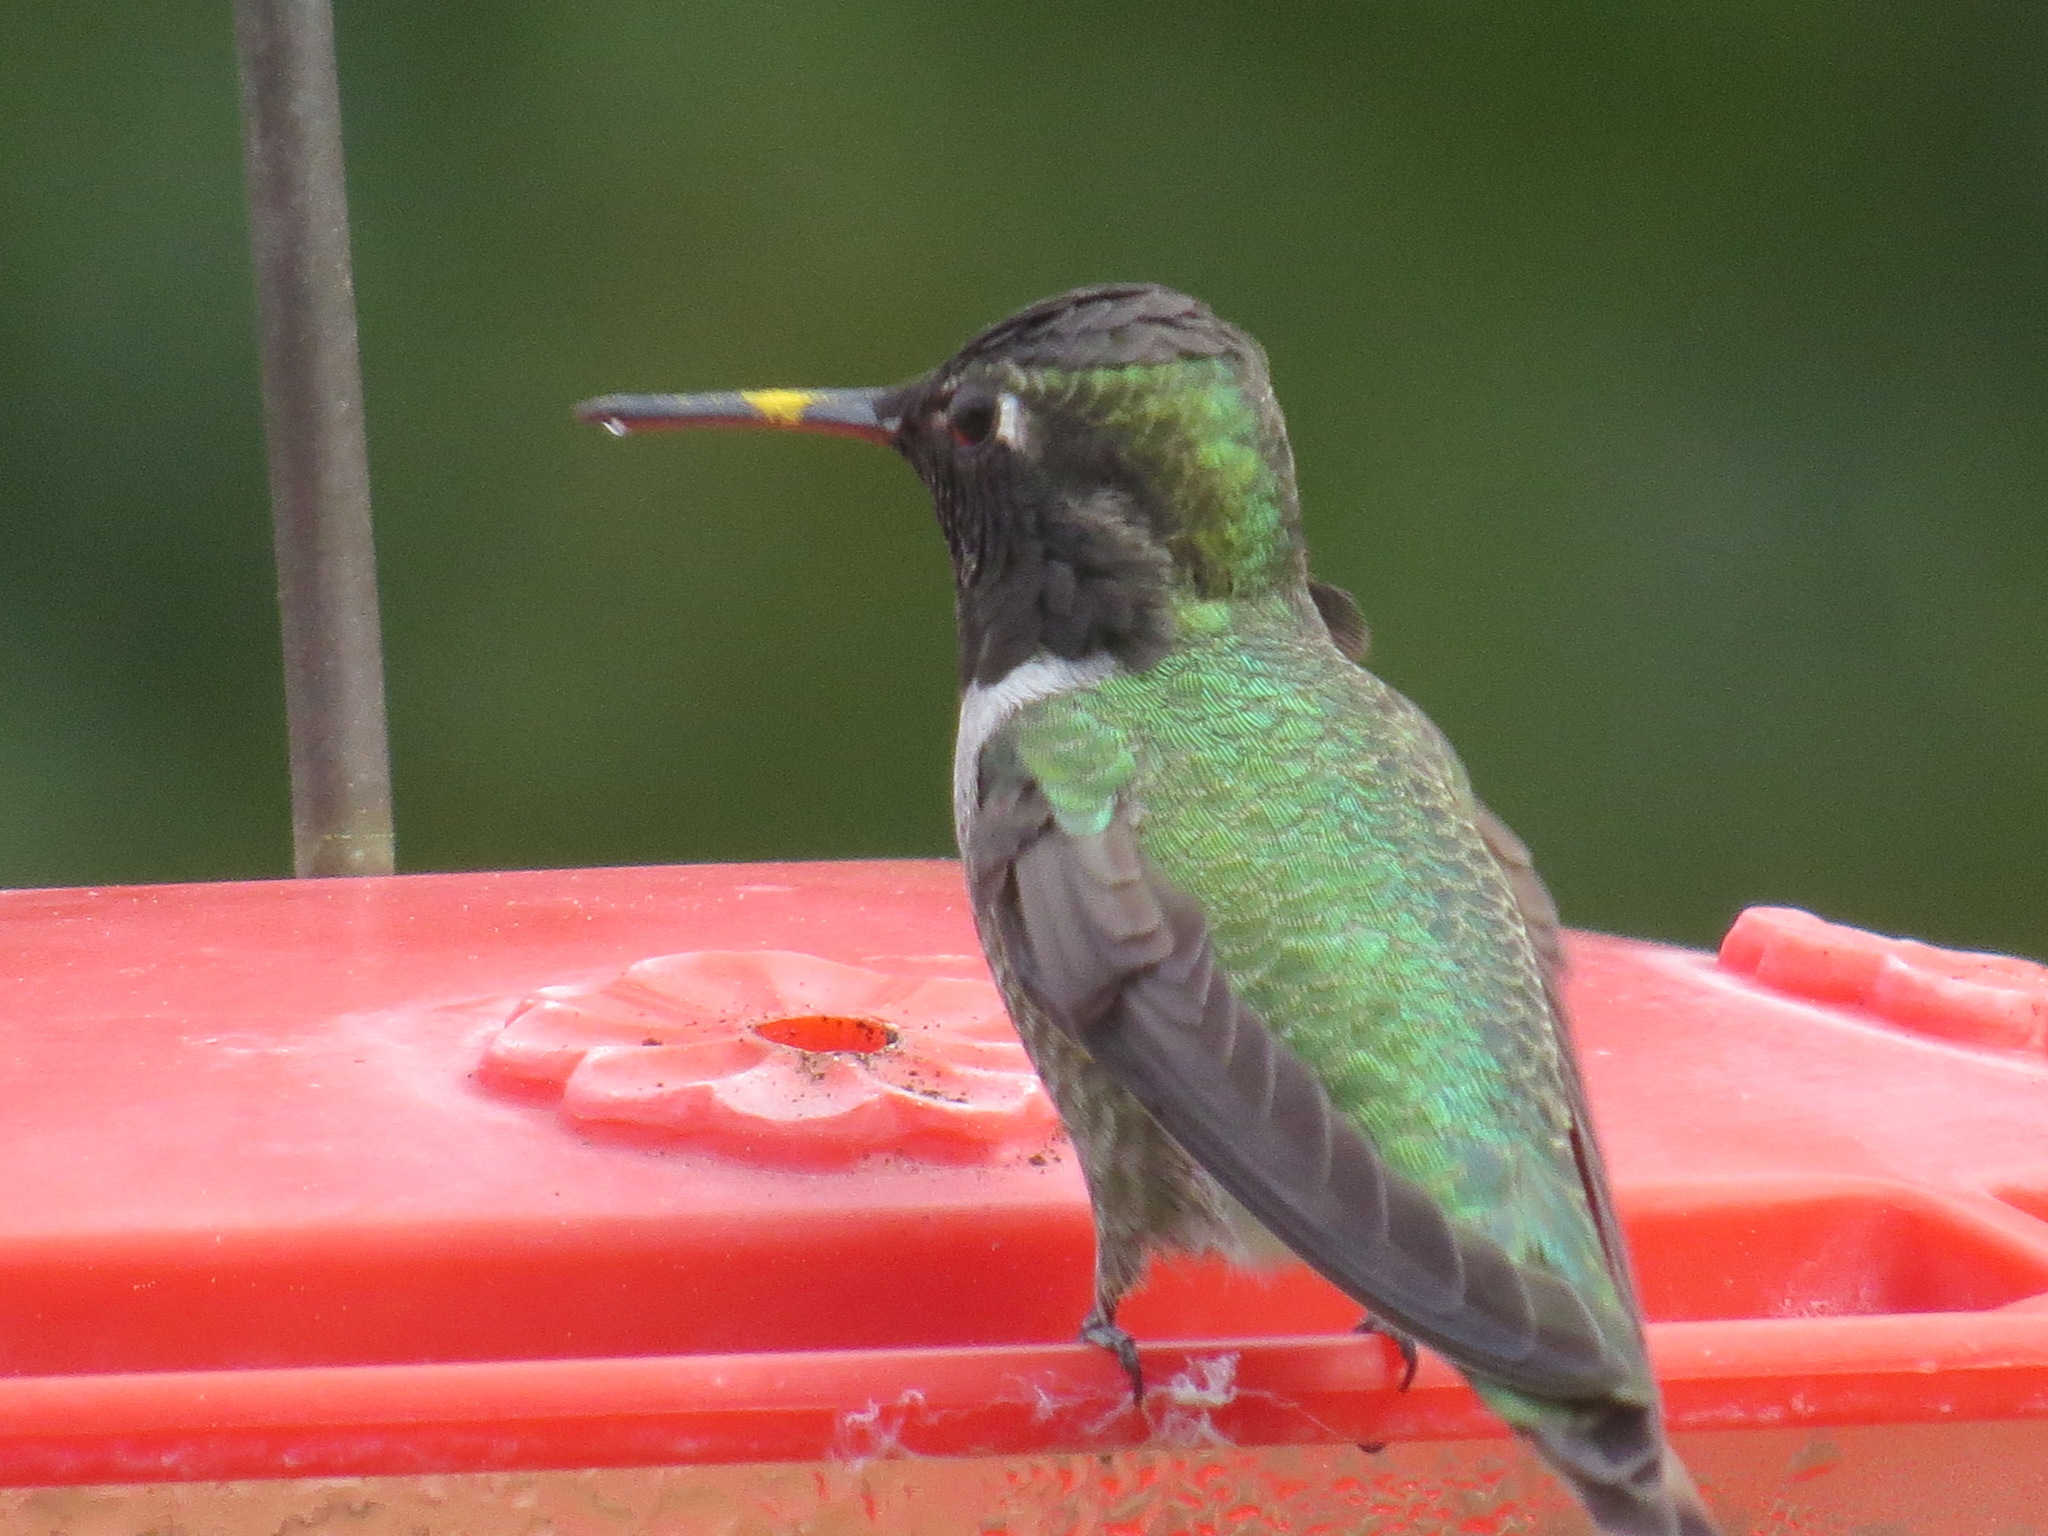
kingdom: Animalia
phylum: Chordata
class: Aves
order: Apodiformes
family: Trochilidae
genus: Calypte
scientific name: Calypte anna
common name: Anna's hummingbird
